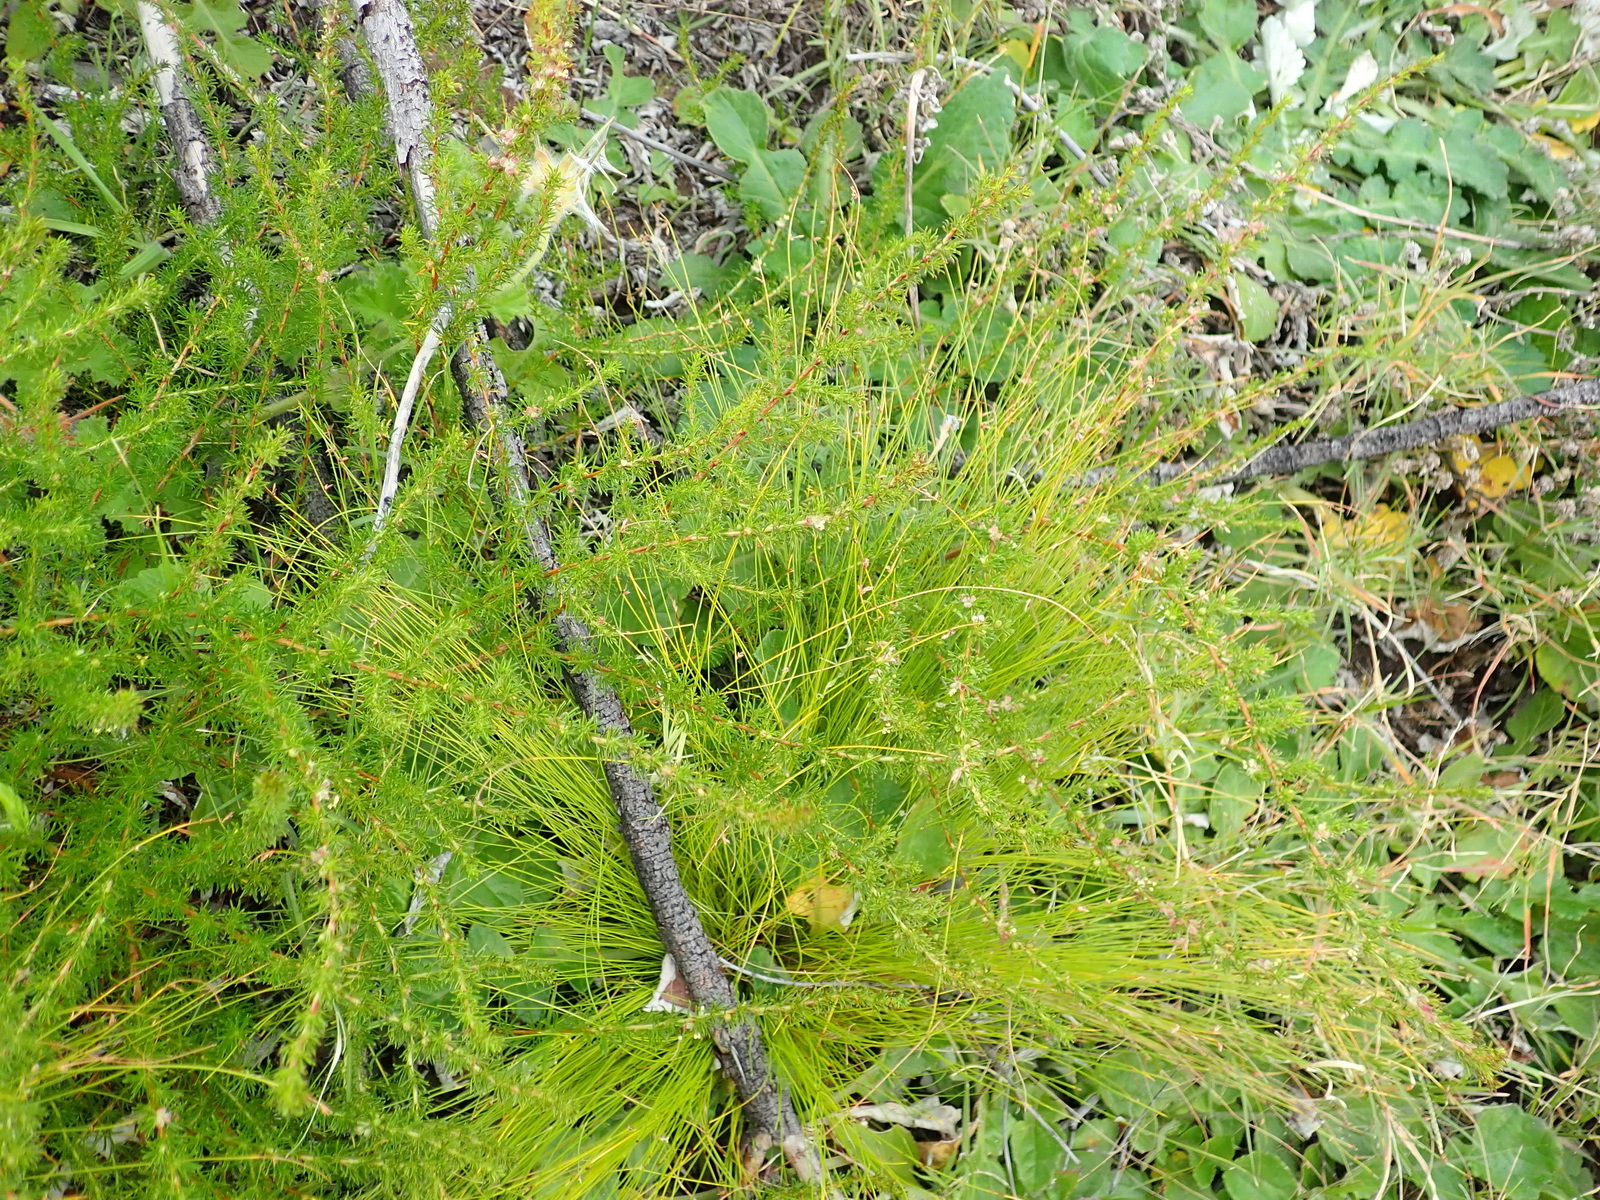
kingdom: Plantae
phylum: Tracheophyta
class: Magnoliopsida
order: Rosales
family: Rosaceae
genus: Cliffortia
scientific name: Cliffortia filifolia
